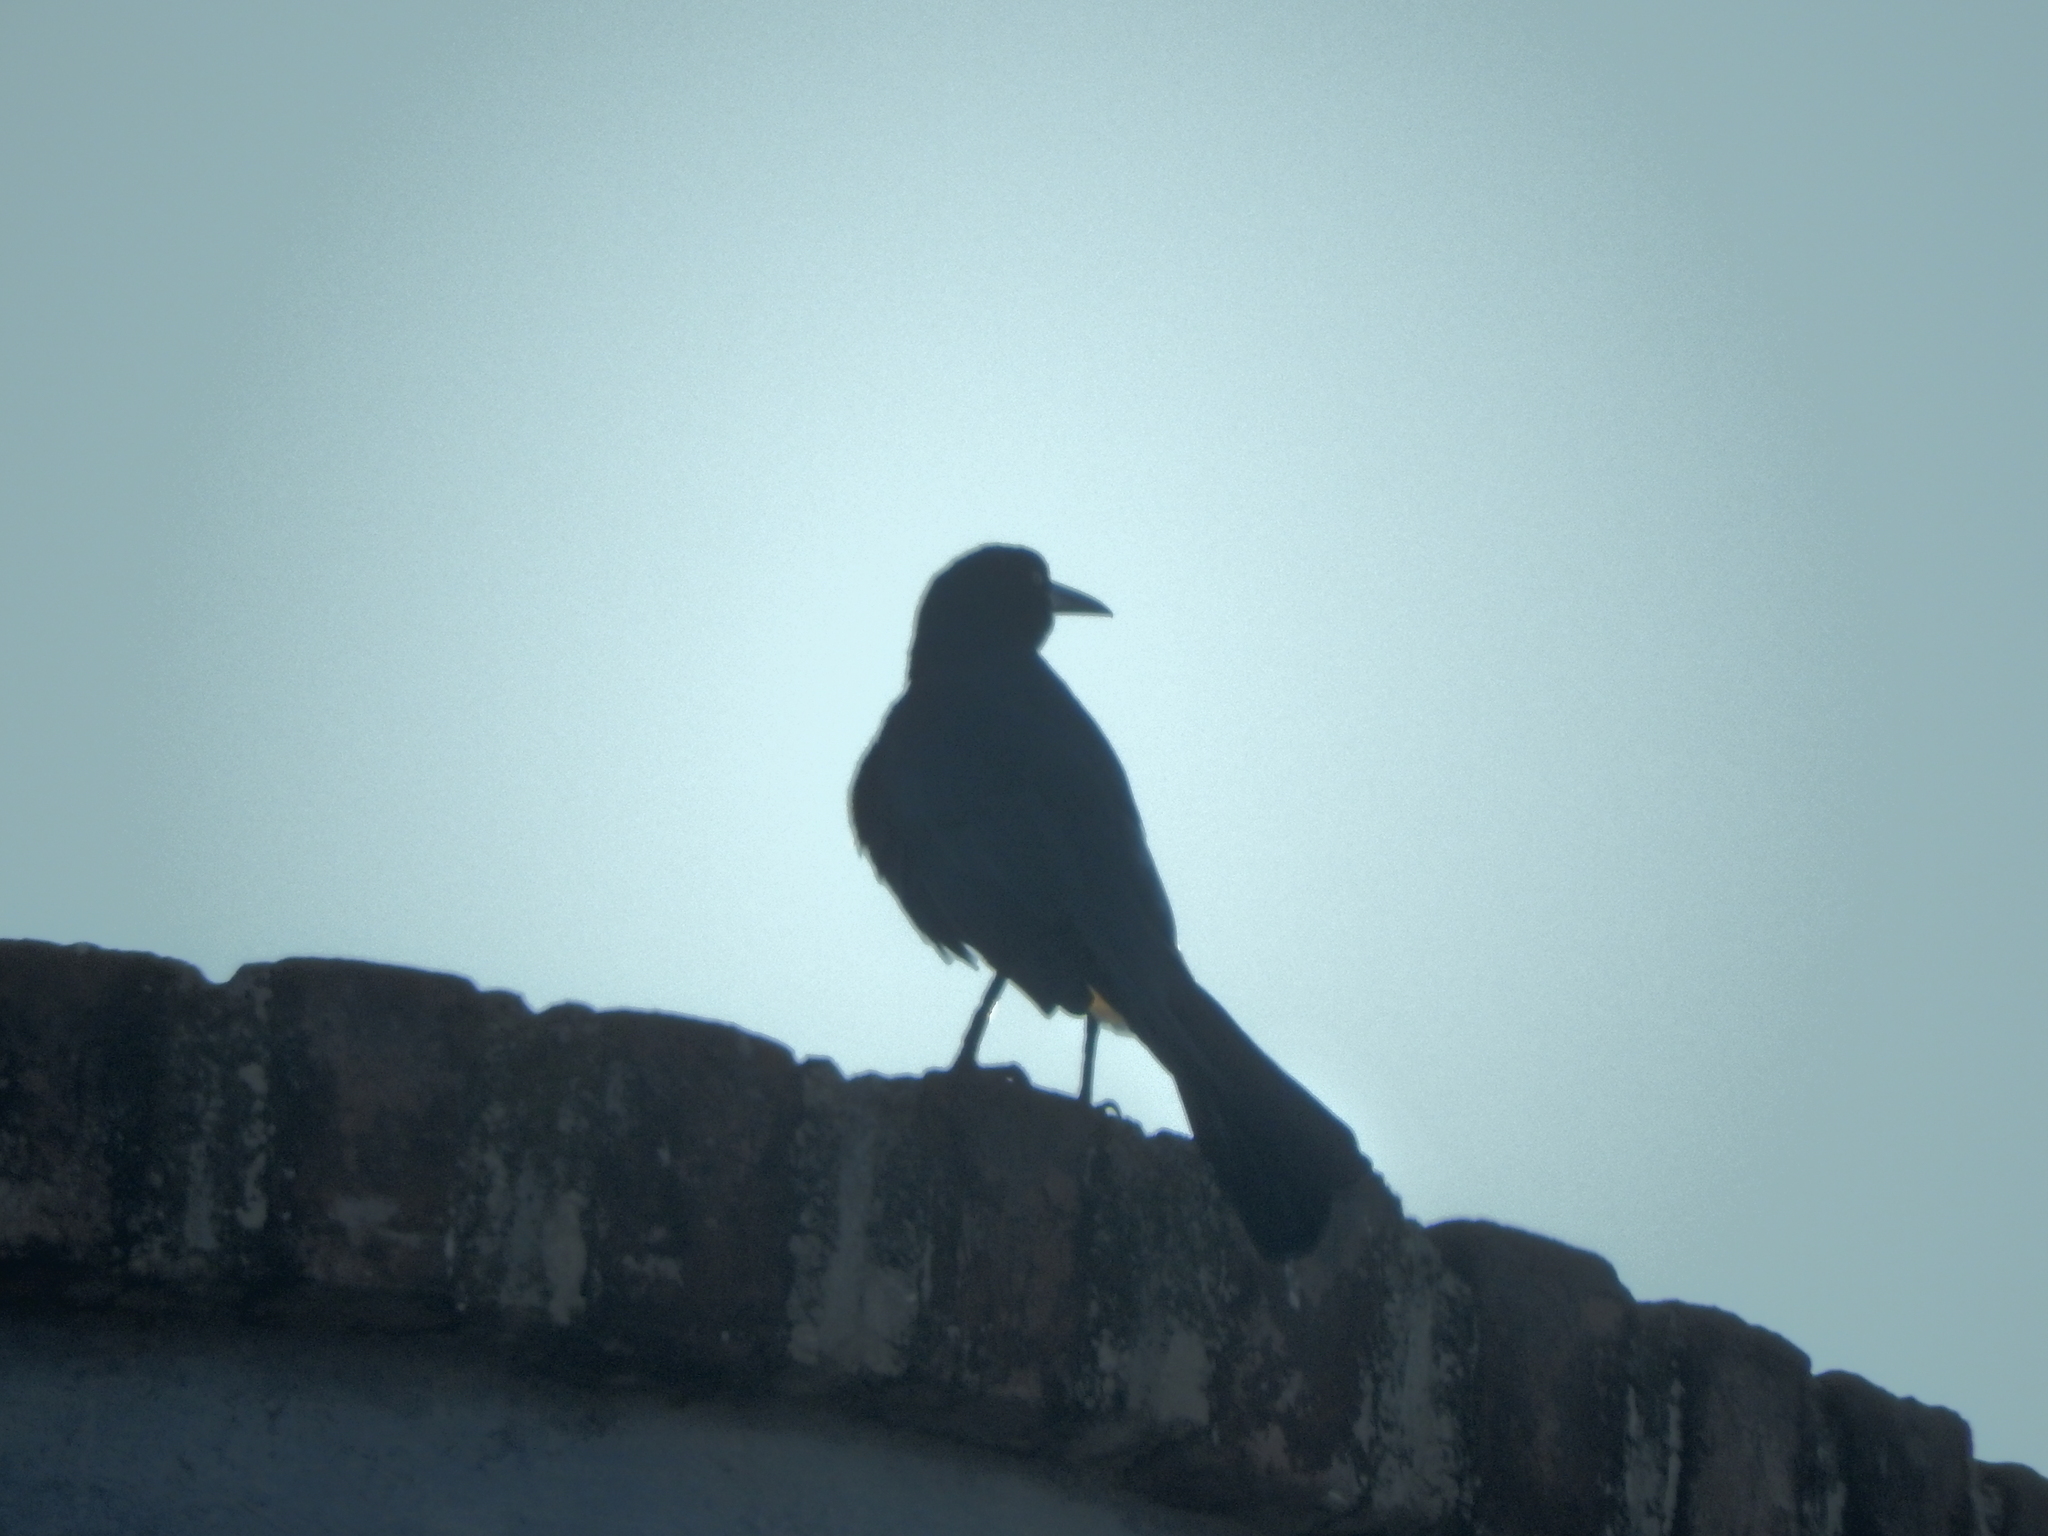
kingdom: Animalia
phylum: Chordata
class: Aves
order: Passeriformes
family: Icteridae
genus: Quiscalus
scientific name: Quiscalus mexicanus
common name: Great-tailed grackle
